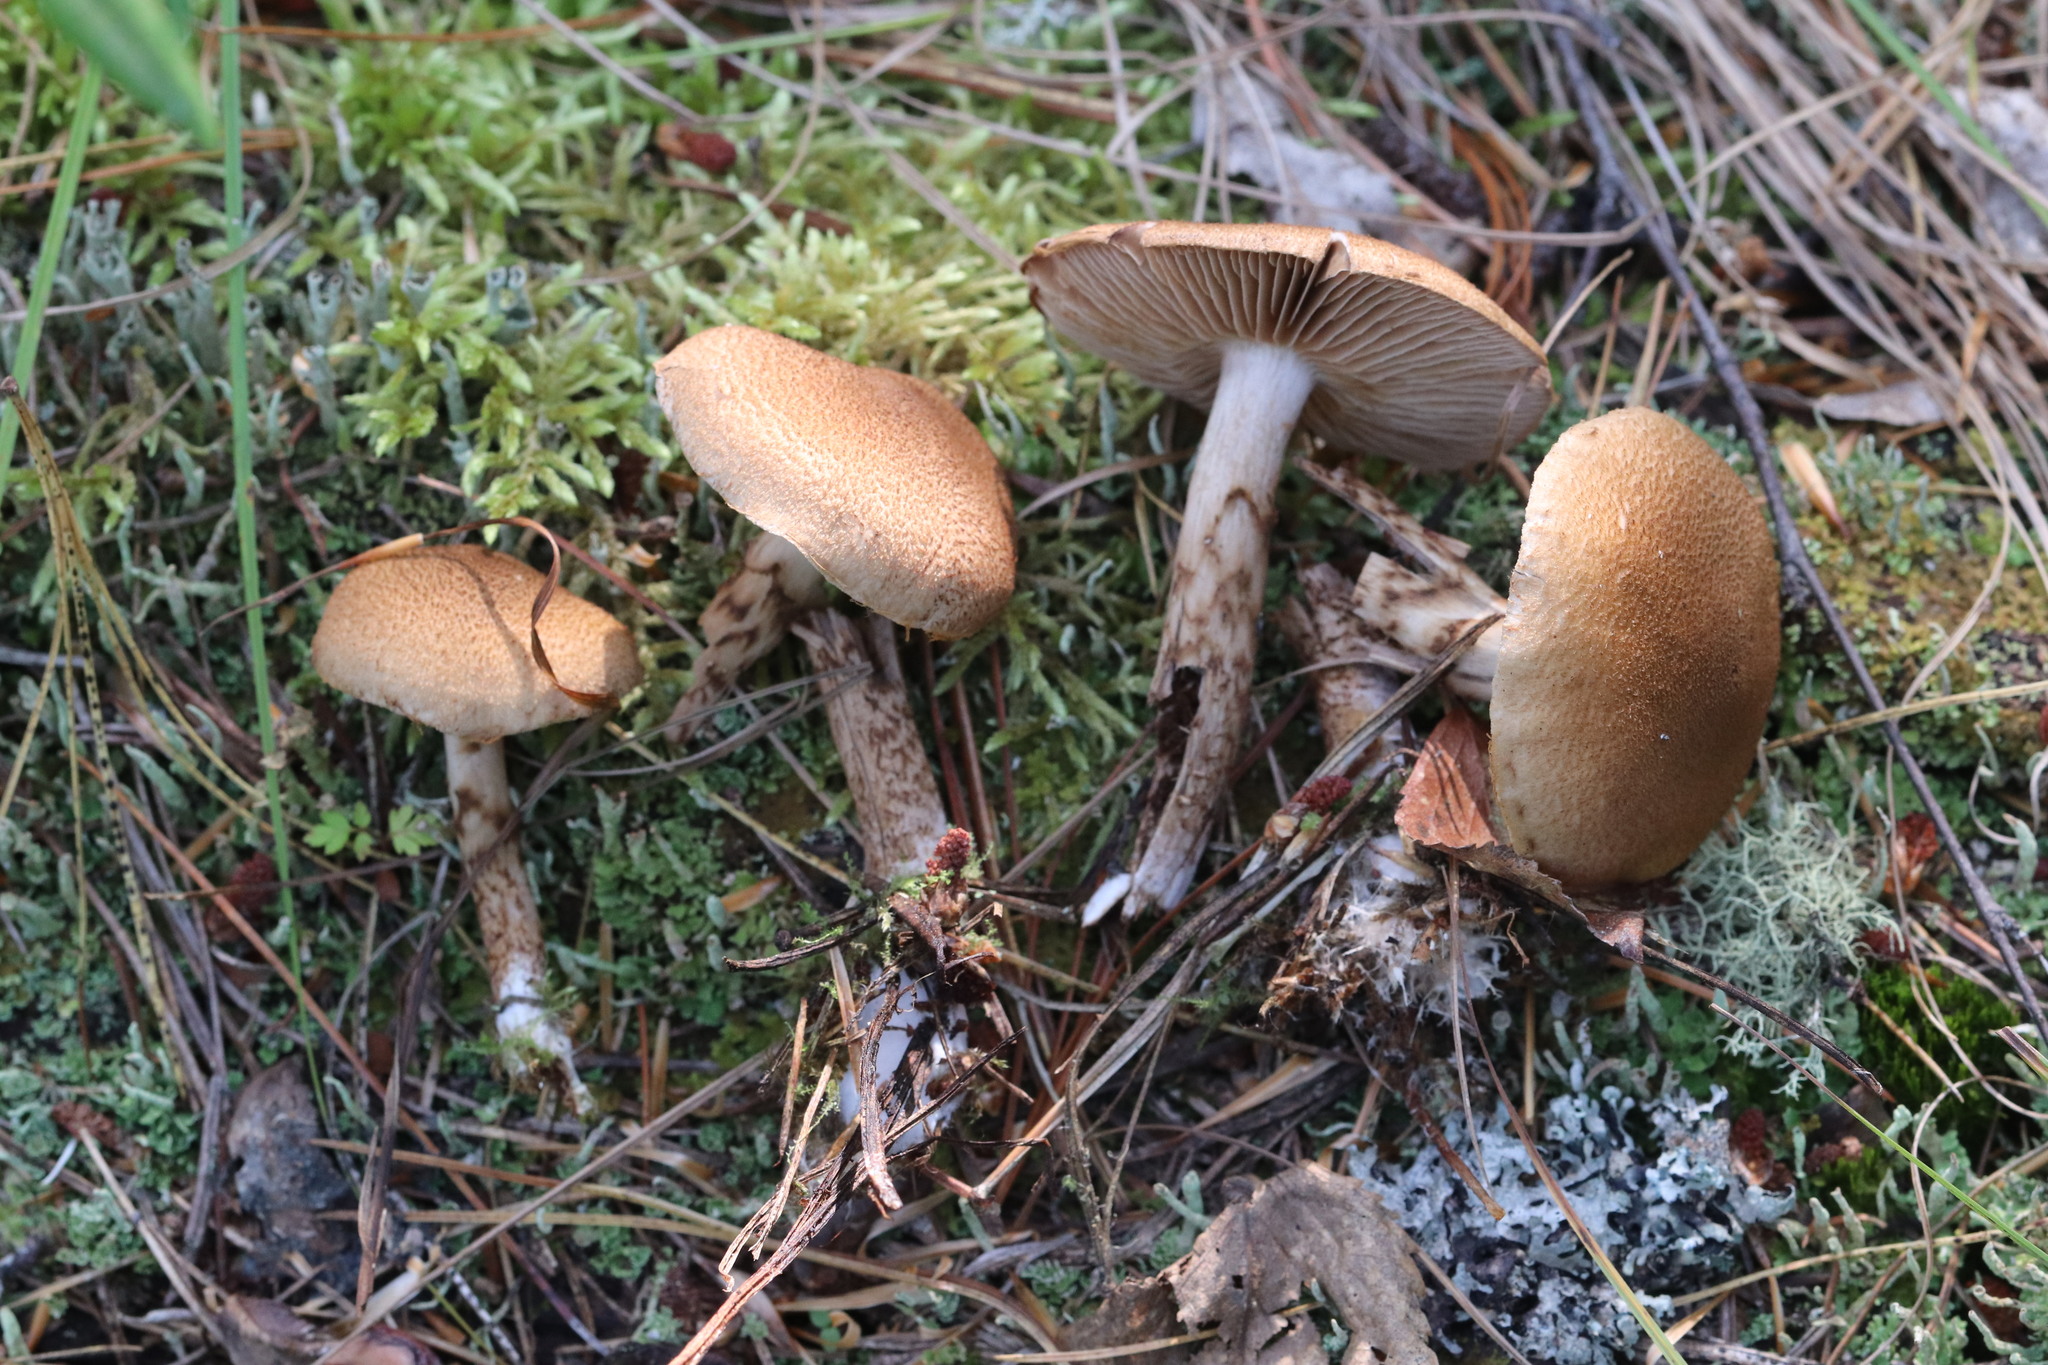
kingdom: Fungi
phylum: Basidiomycota
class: Agaricomycetes
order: Agaricales
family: Cortinariaceae
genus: Cortinarius
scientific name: Cortinarius pholideus
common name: Scaly webcap
